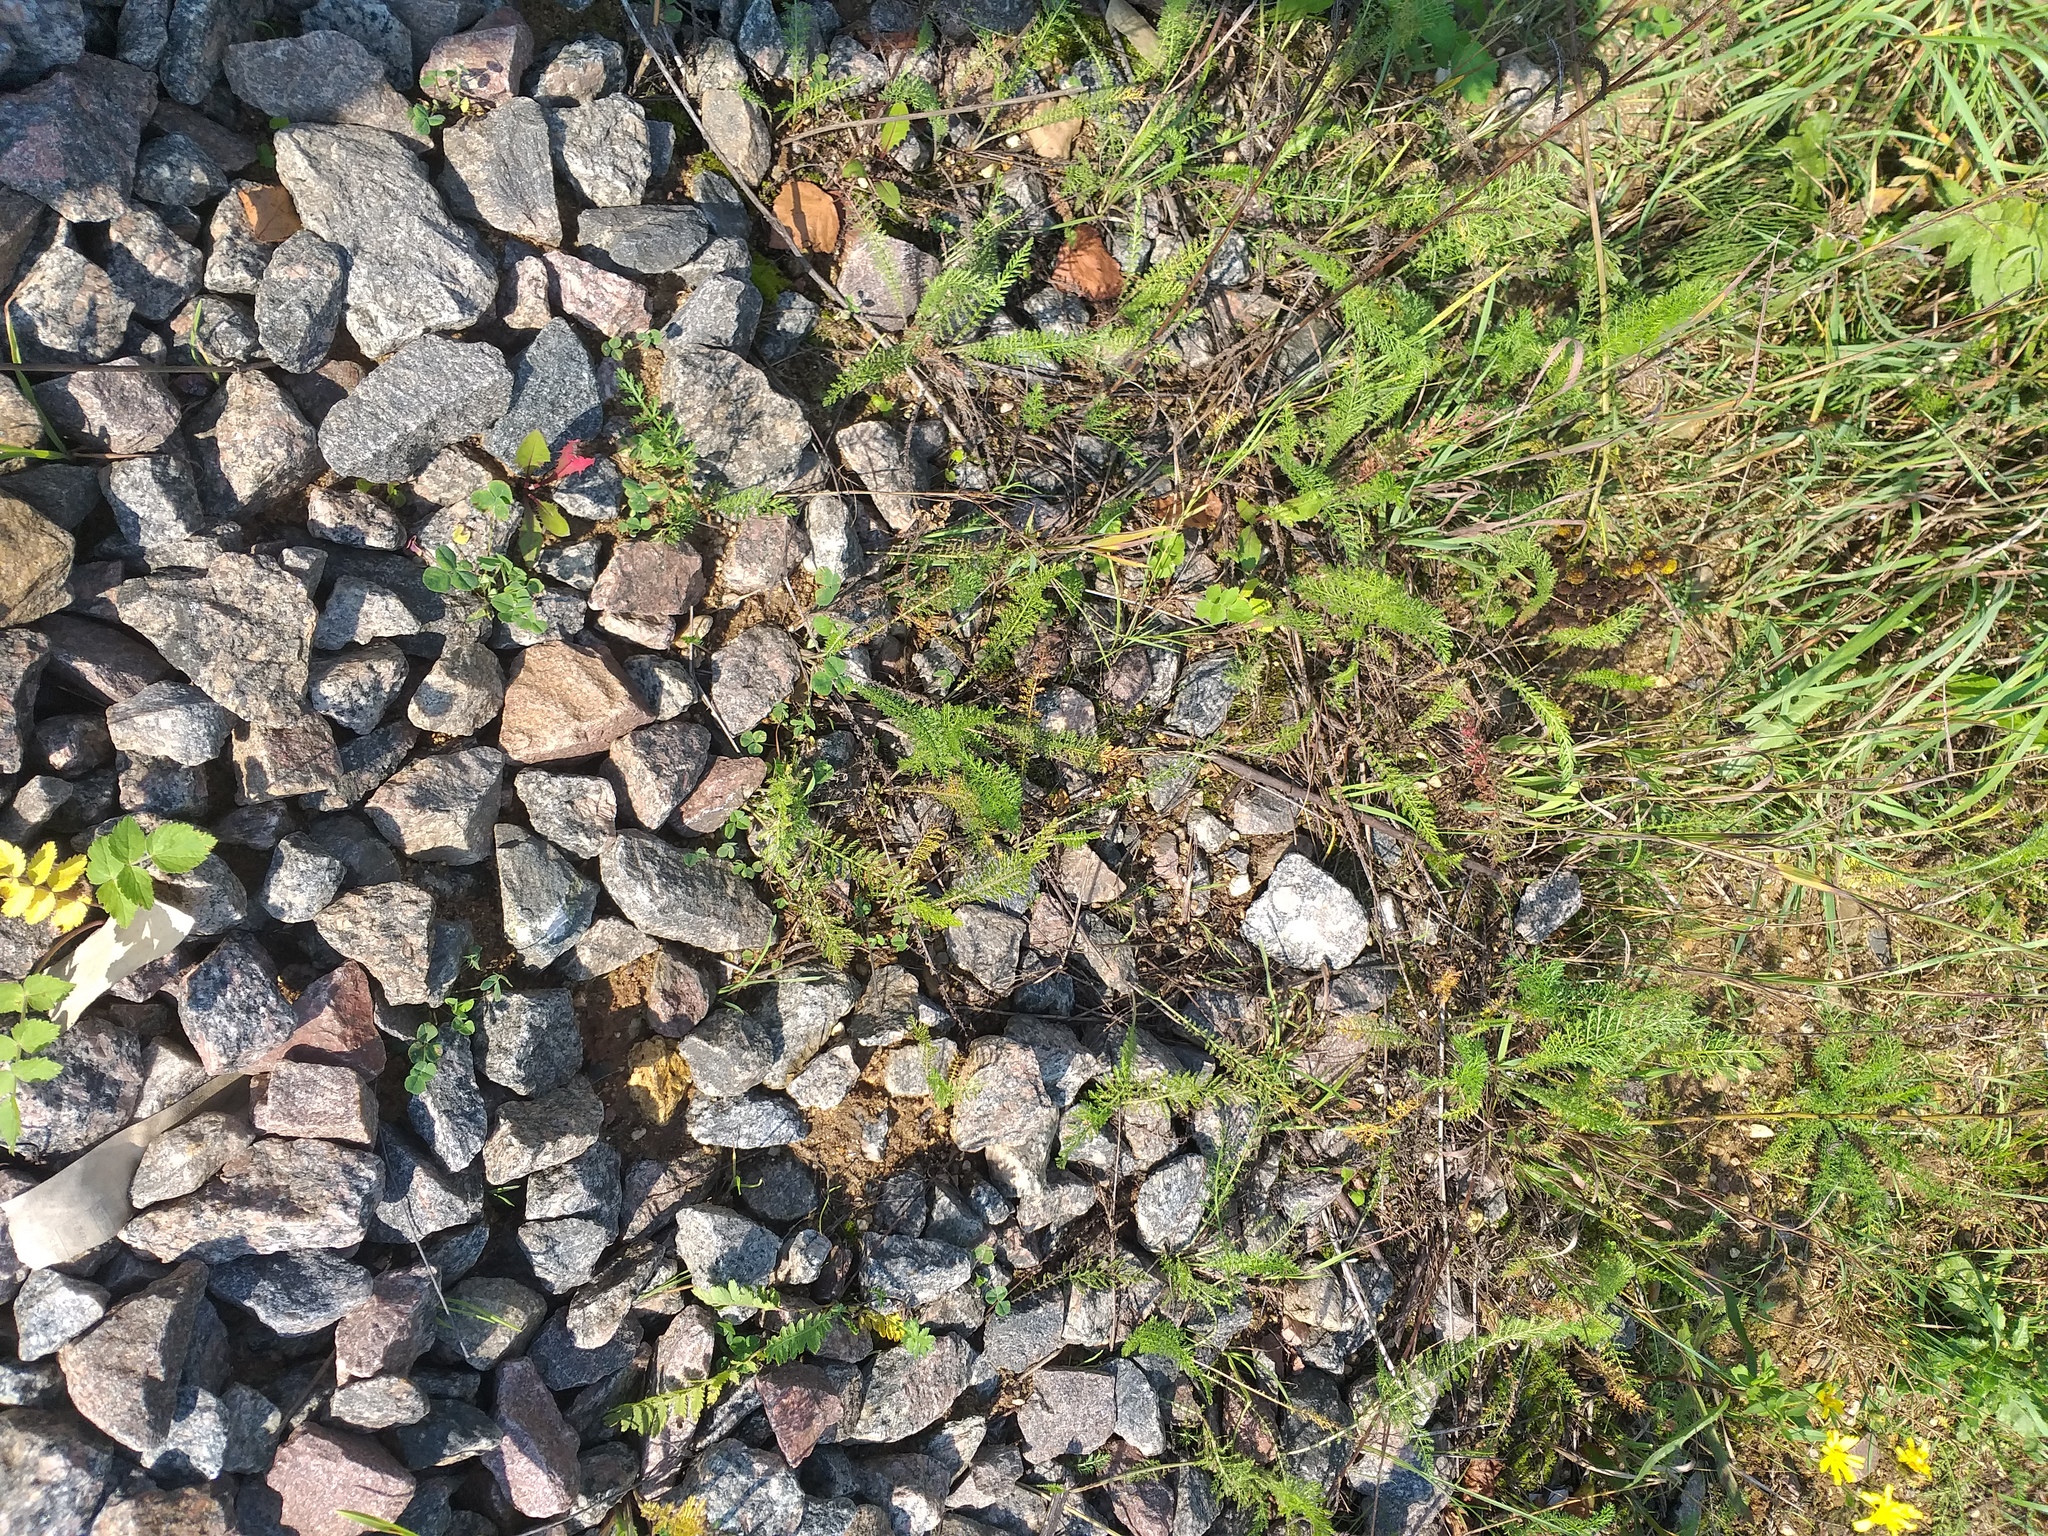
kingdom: Plantae
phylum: Tracheophyta
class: Magnoliopsida
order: Asterales
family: Asteraceae
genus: Achillea
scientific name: Achillea millefolium
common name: Yarrow
